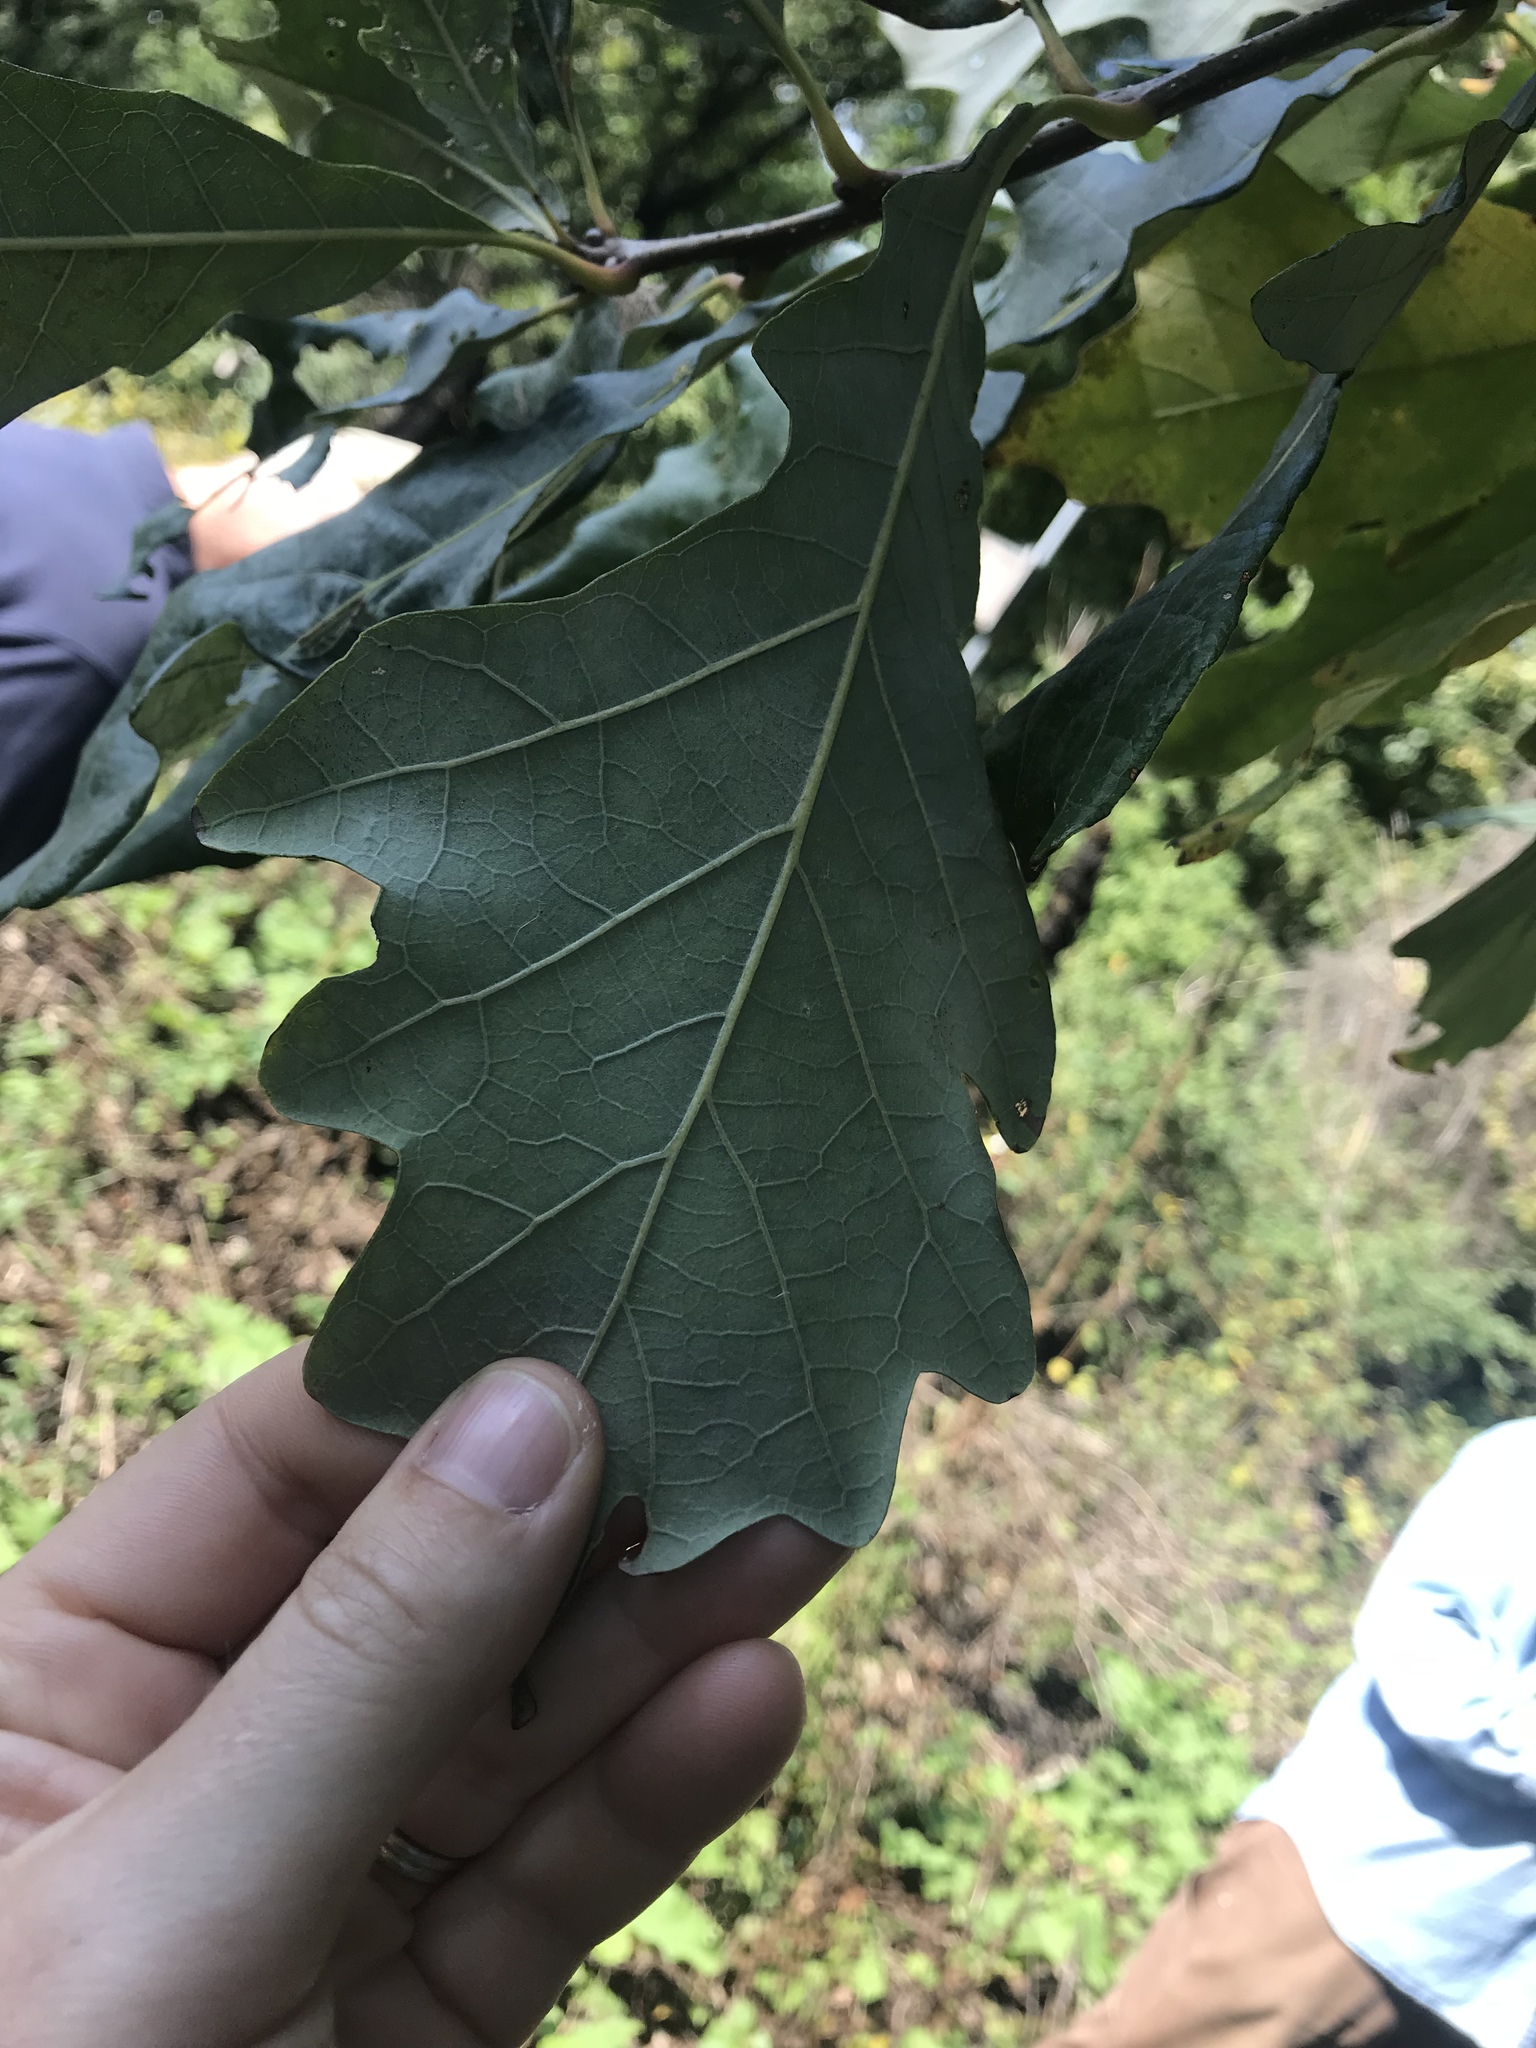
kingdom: Plantae
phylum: Tracheophyta
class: Magnoliopsida
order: Fagales
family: Fagaceae
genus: Quercus
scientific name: Quercus bicolor
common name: Swamp white oak
